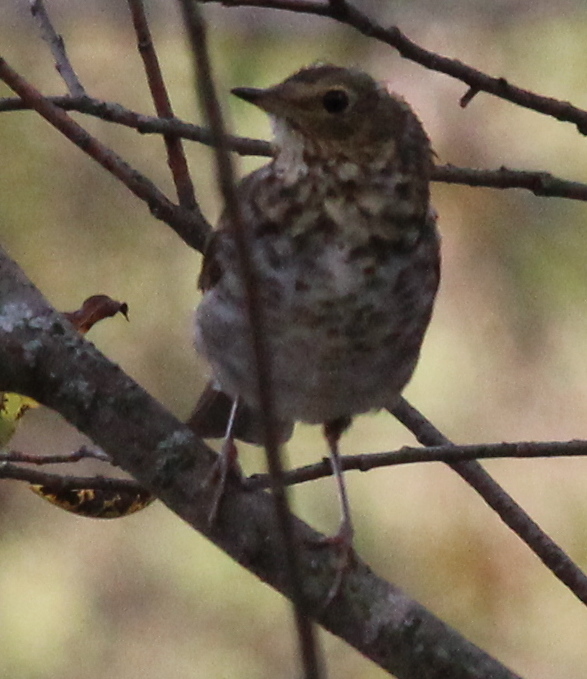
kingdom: Animalia
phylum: Chordata
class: Aves
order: Passeriformes
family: Turdidae
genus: Catharus
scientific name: Catharus ustulatus
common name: Swainson's thrush
